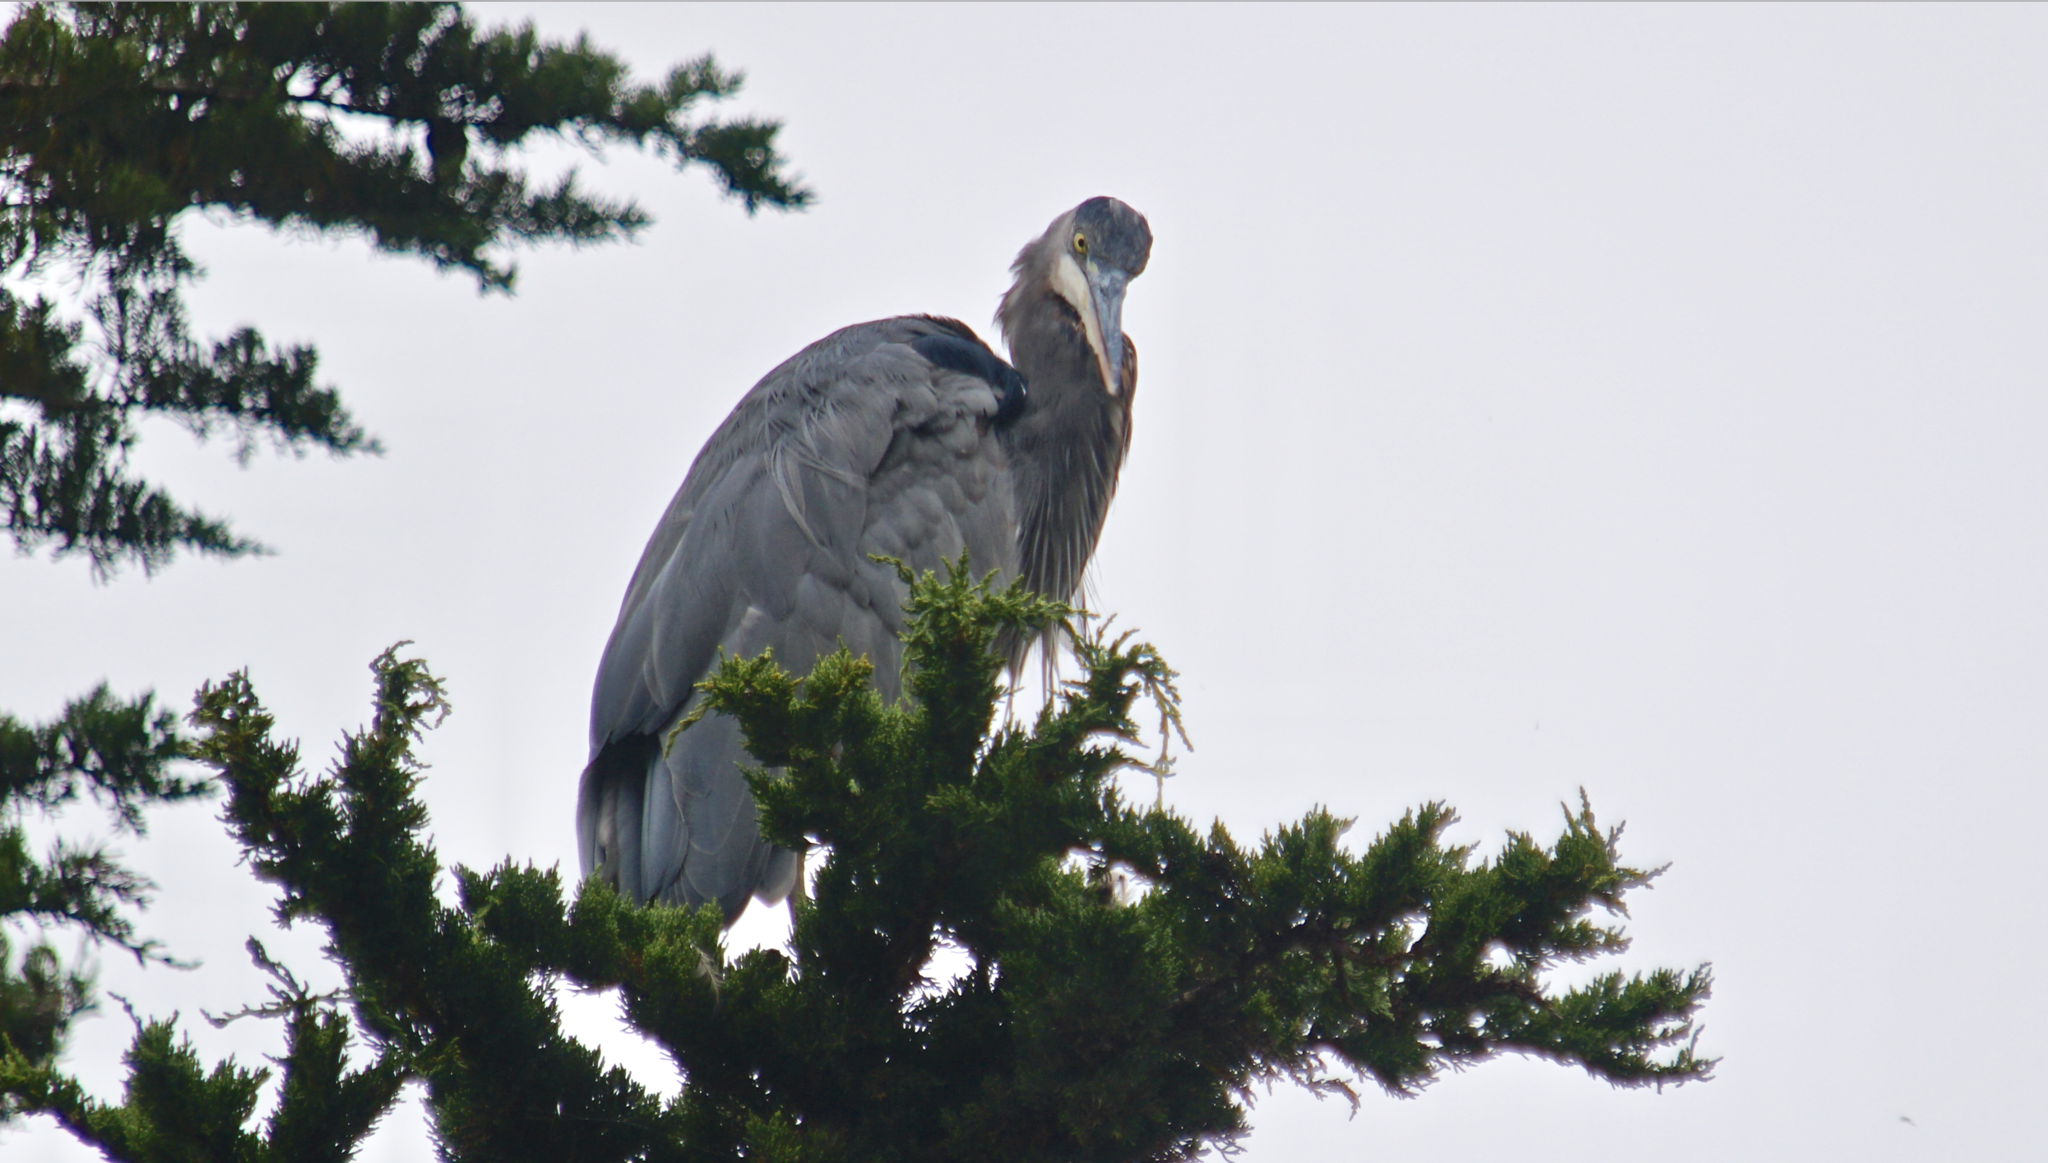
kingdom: Animalia
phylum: Chordata
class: Aves
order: Pelecaniformes
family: Ardeidae
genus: Ardea
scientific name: Ardea herodias
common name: Great blue heron
